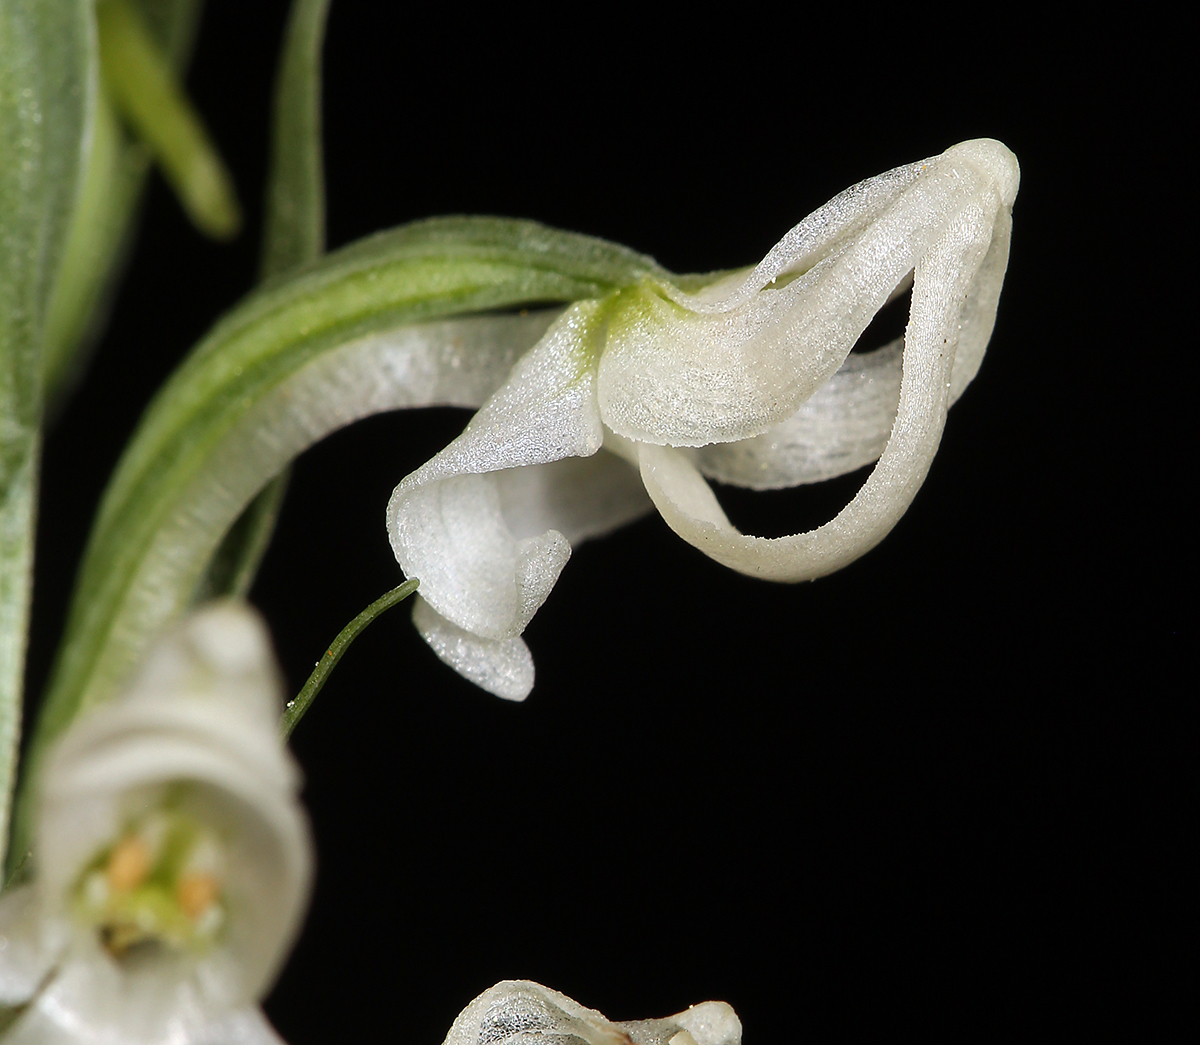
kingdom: Plantae
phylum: Tracheophyta
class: Liliopsida
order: Asparagales
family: Orchidaceae
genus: Platanthera
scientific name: Platanthera dilatata
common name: Bog candles
